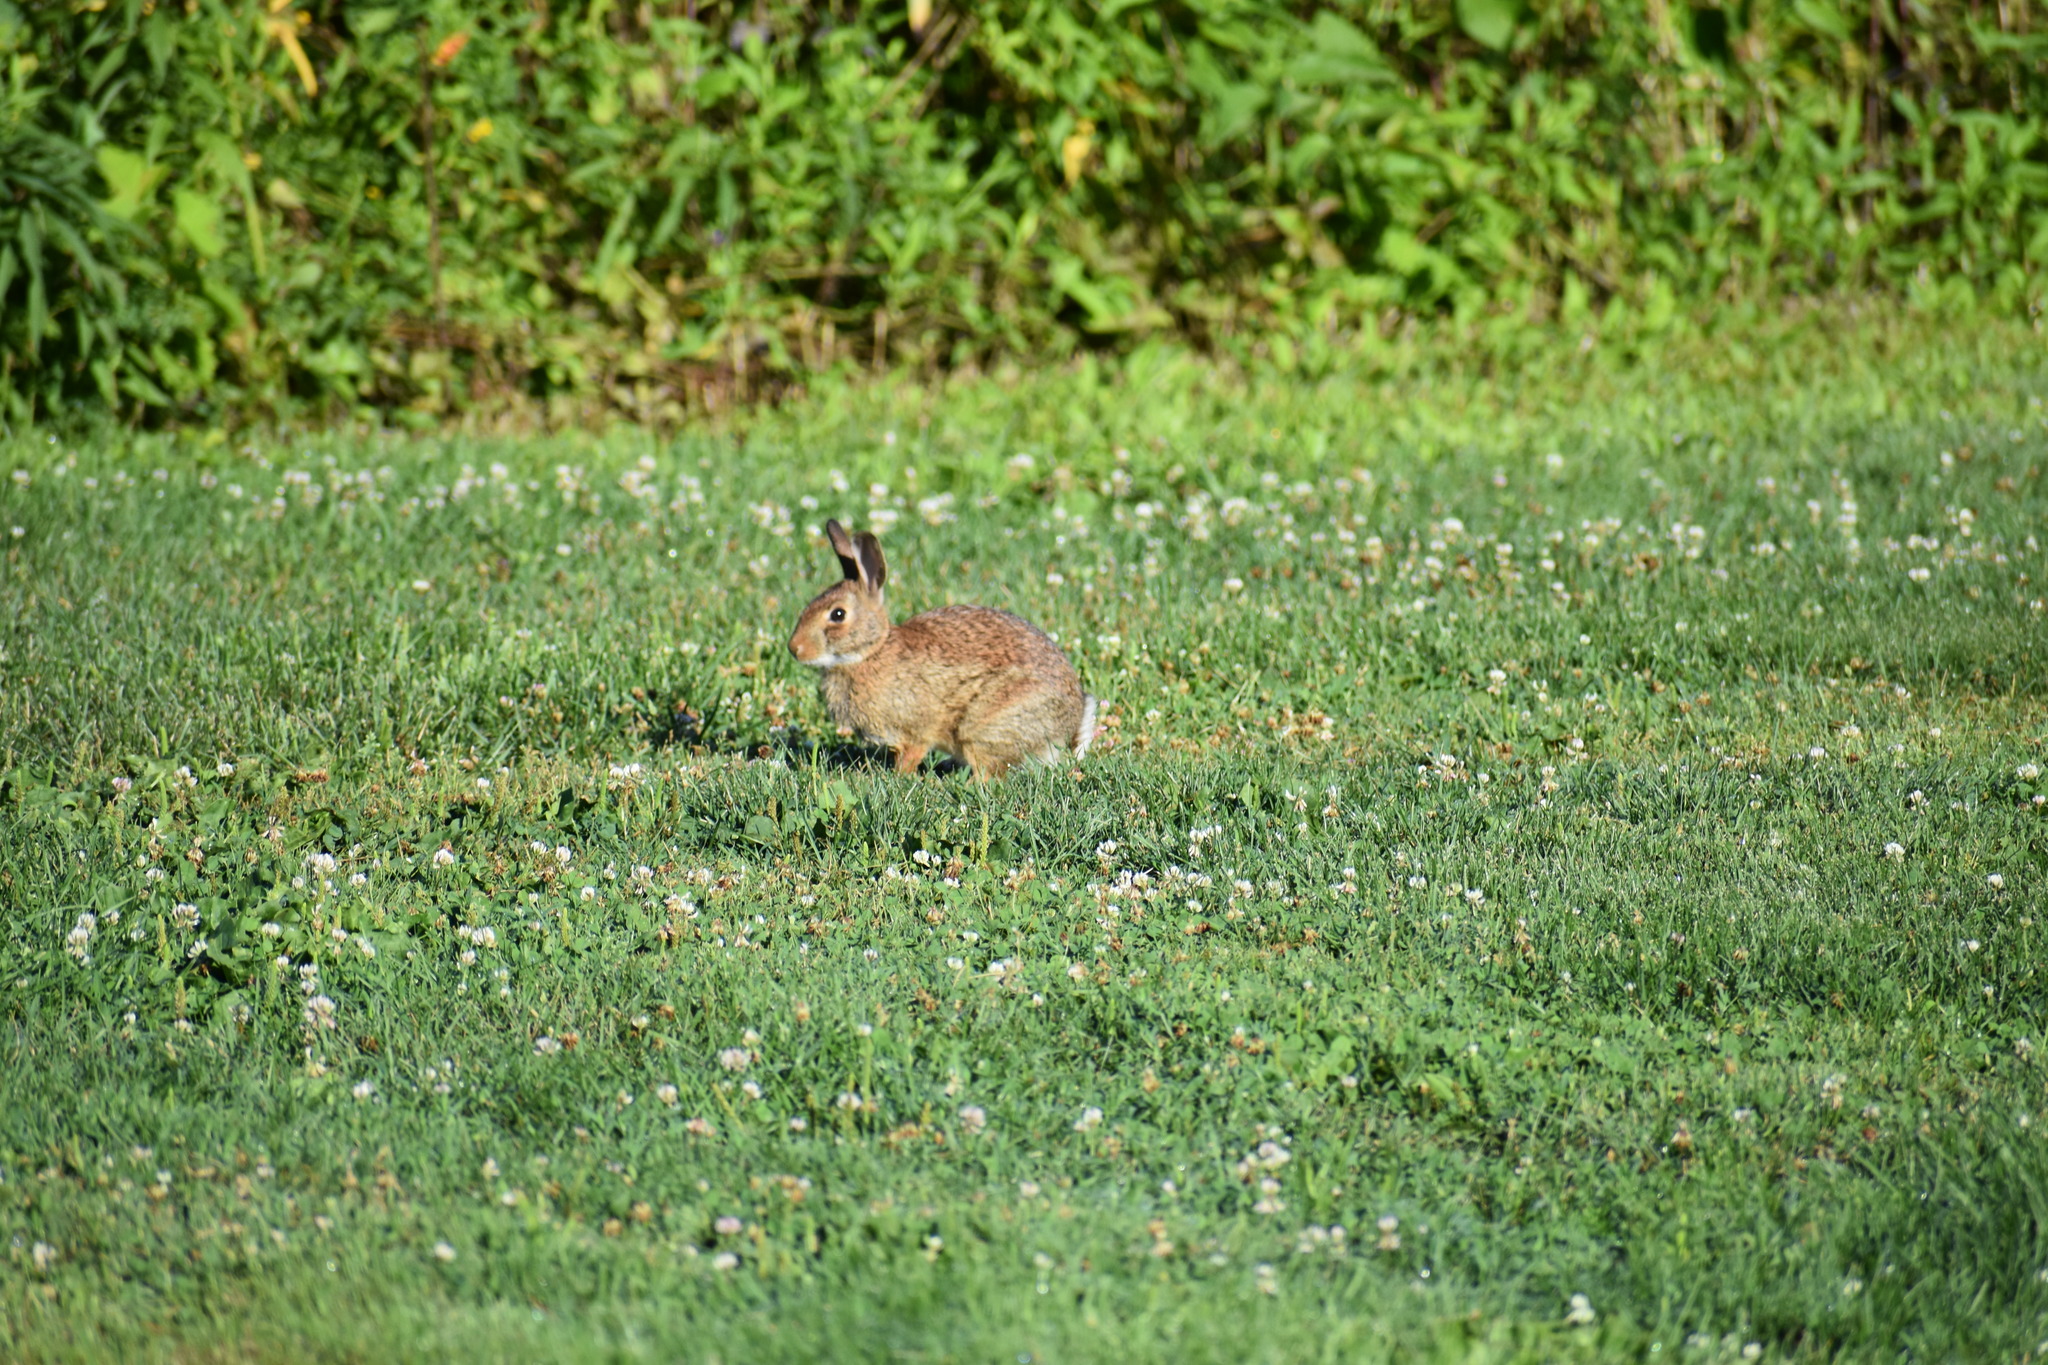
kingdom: Animalia
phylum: Chordata
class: Mammalia
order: Lagomorpha
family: Leporidae
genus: Sylvilagus
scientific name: Sylvilagus floridanus
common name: Eastern cottontail
